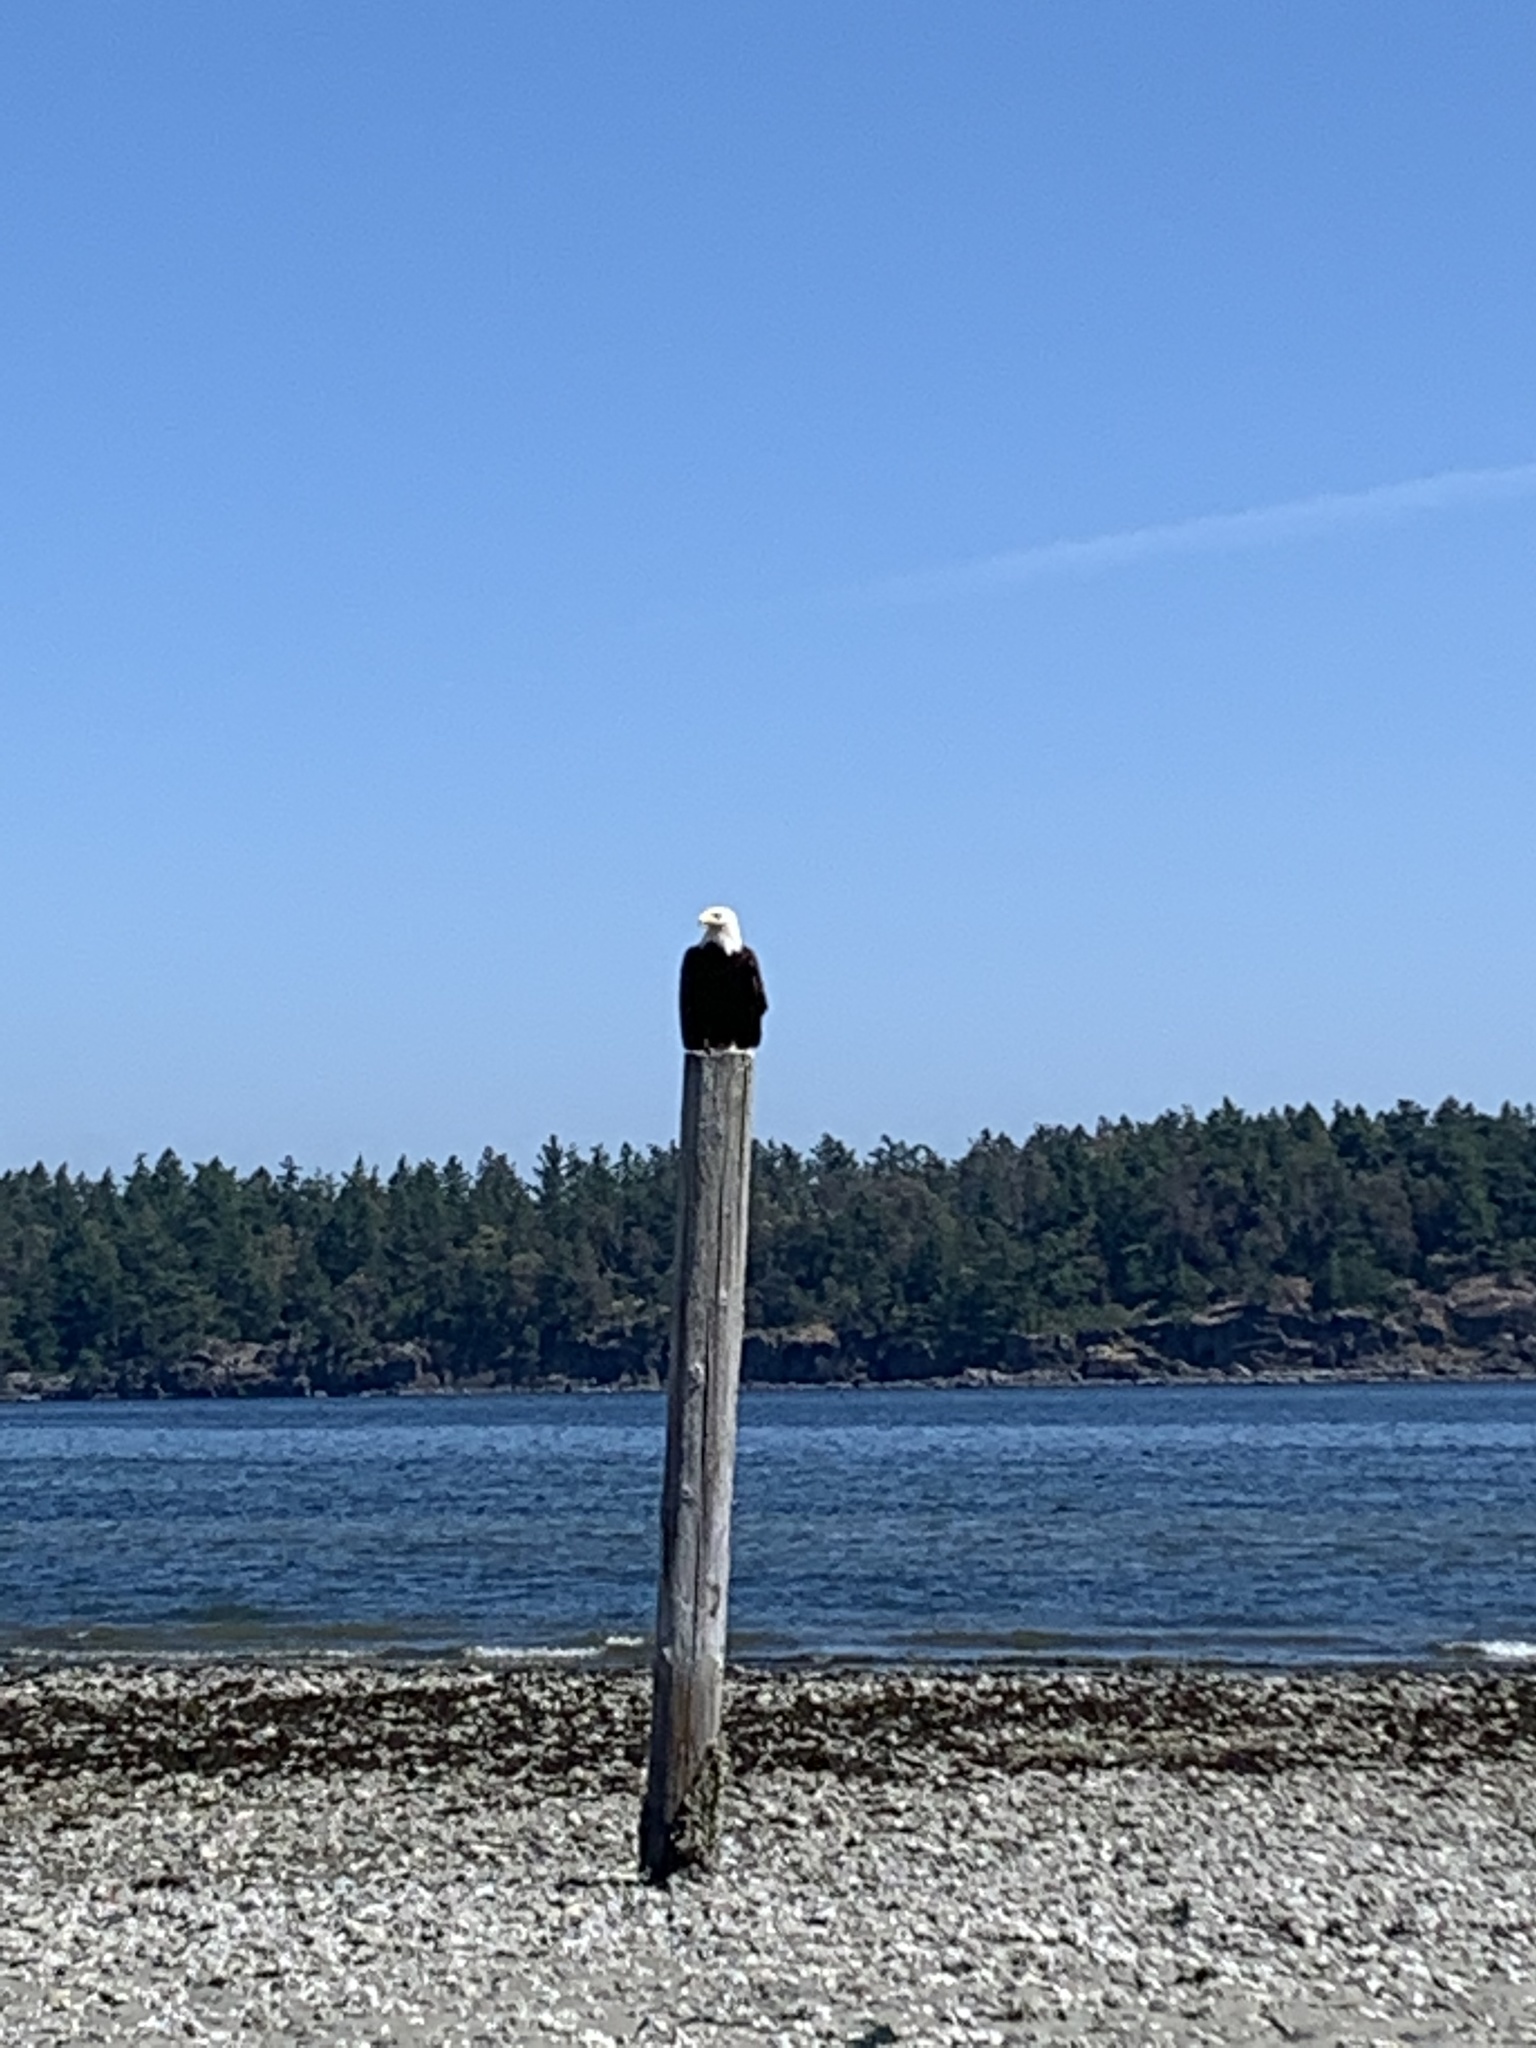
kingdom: Animalia
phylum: Chordata
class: Aves
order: Accipitriformes
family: Accipitridae
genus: Haliaeetus
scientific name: Haliaeetus leucocephalus
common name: Bald eagle
